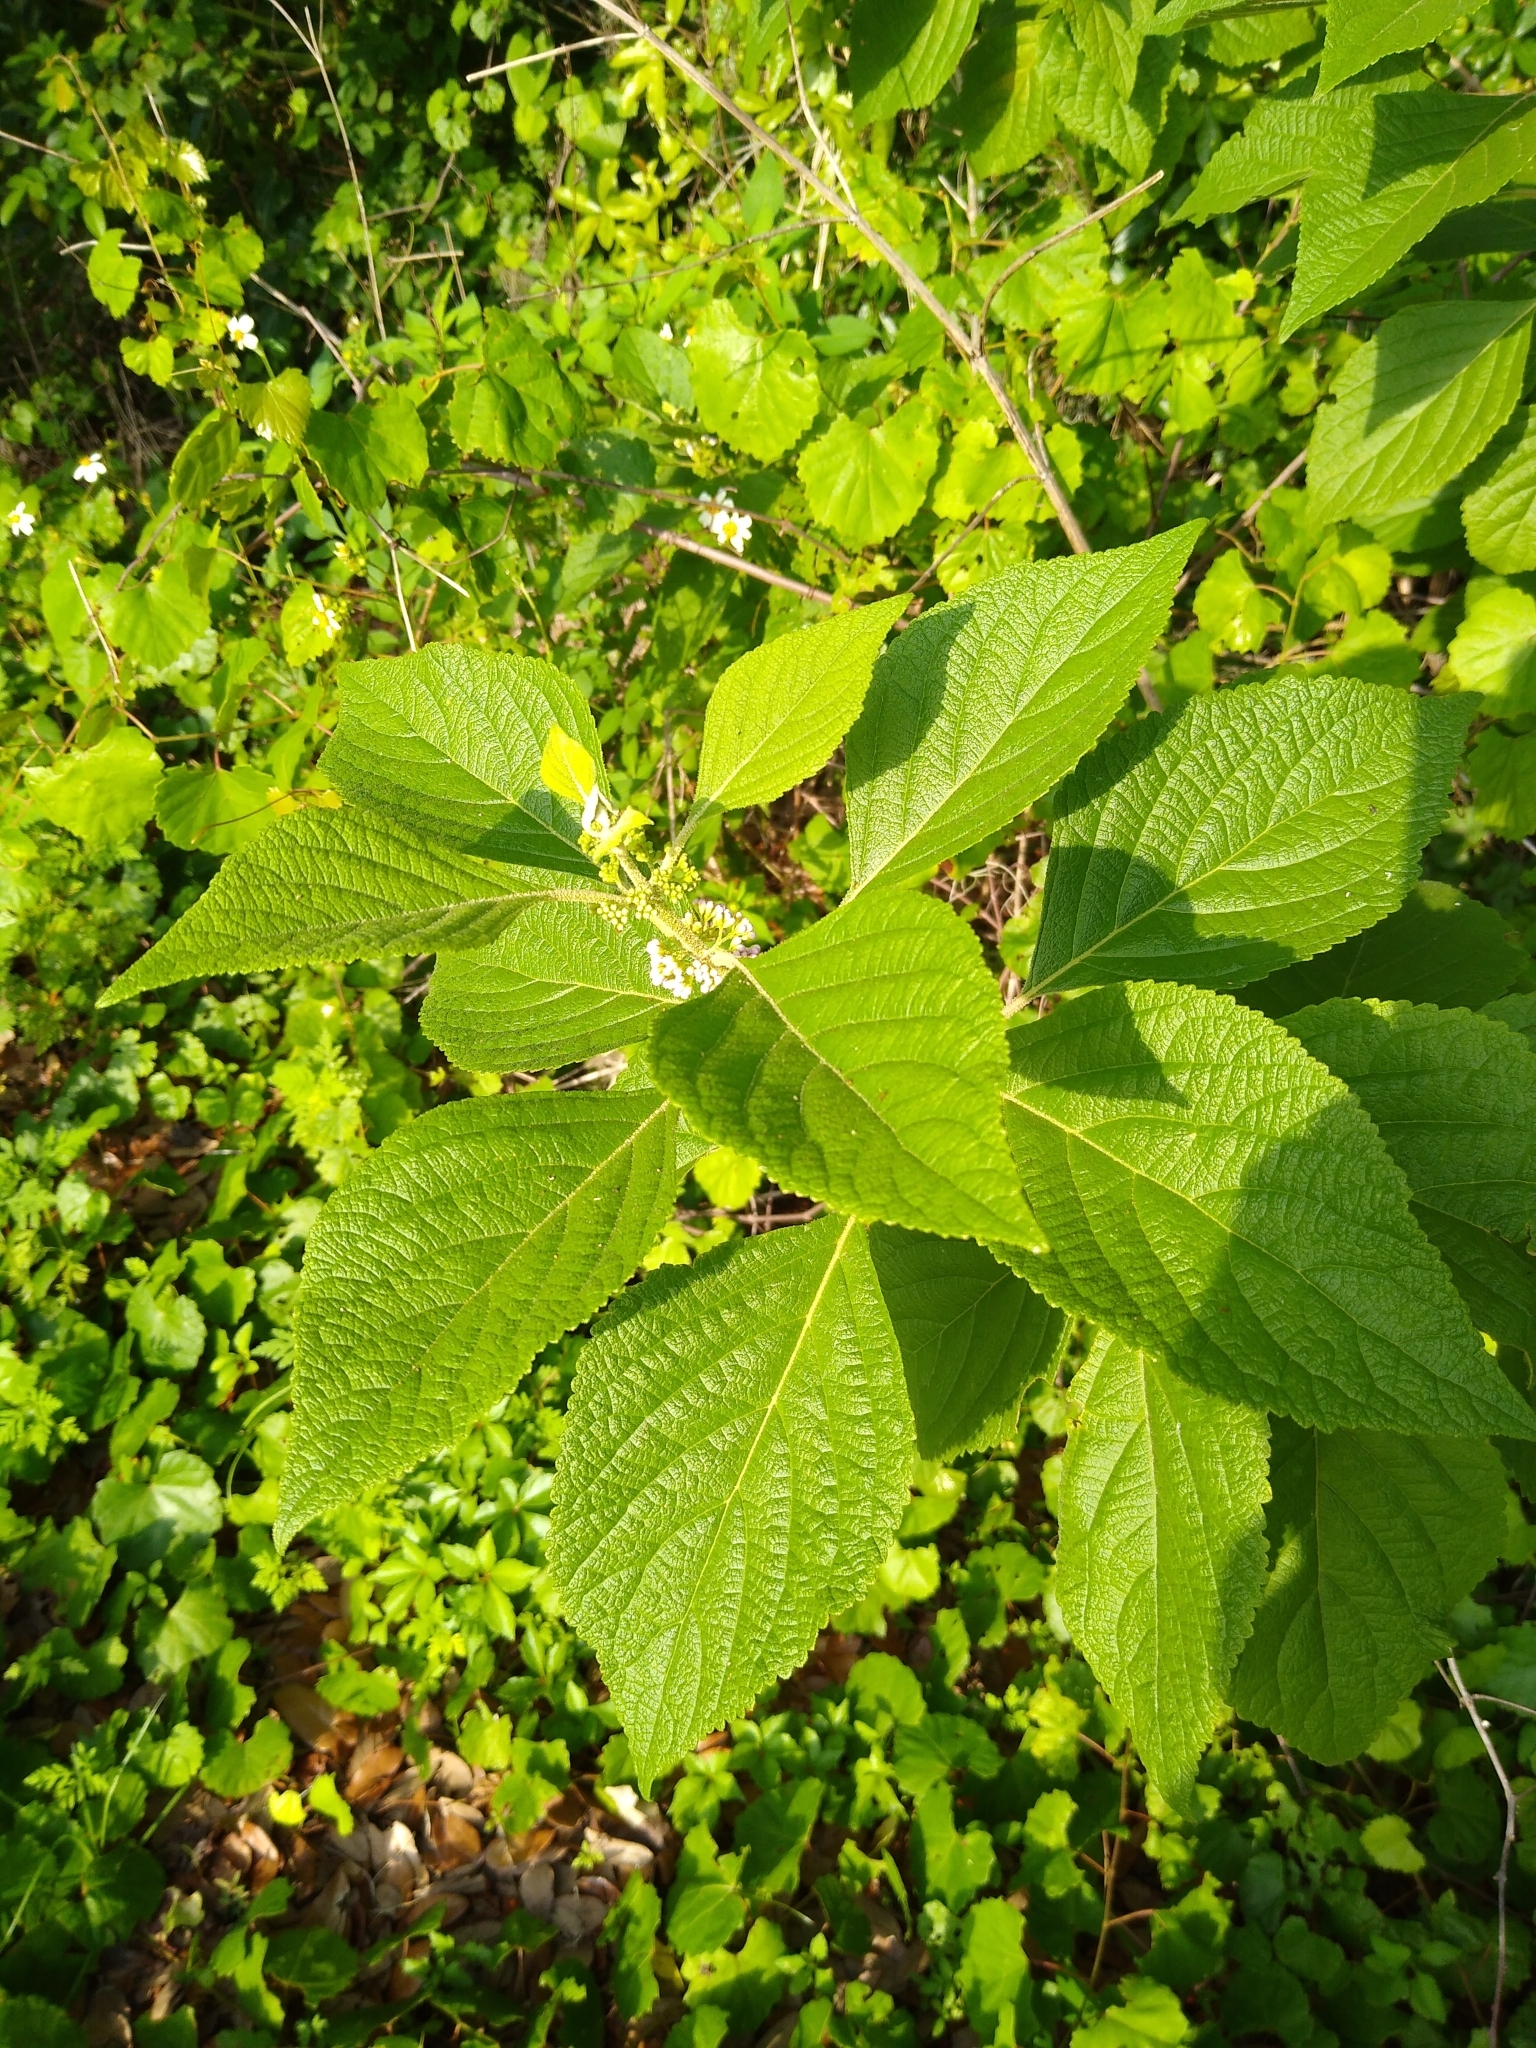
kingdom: Plantae
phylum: Tracheophyta
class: Magnoliopsida
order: Lamiales
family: Lamiaceae
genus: Callicarpa
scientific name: Callicarpa americana
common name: American beautyberry
